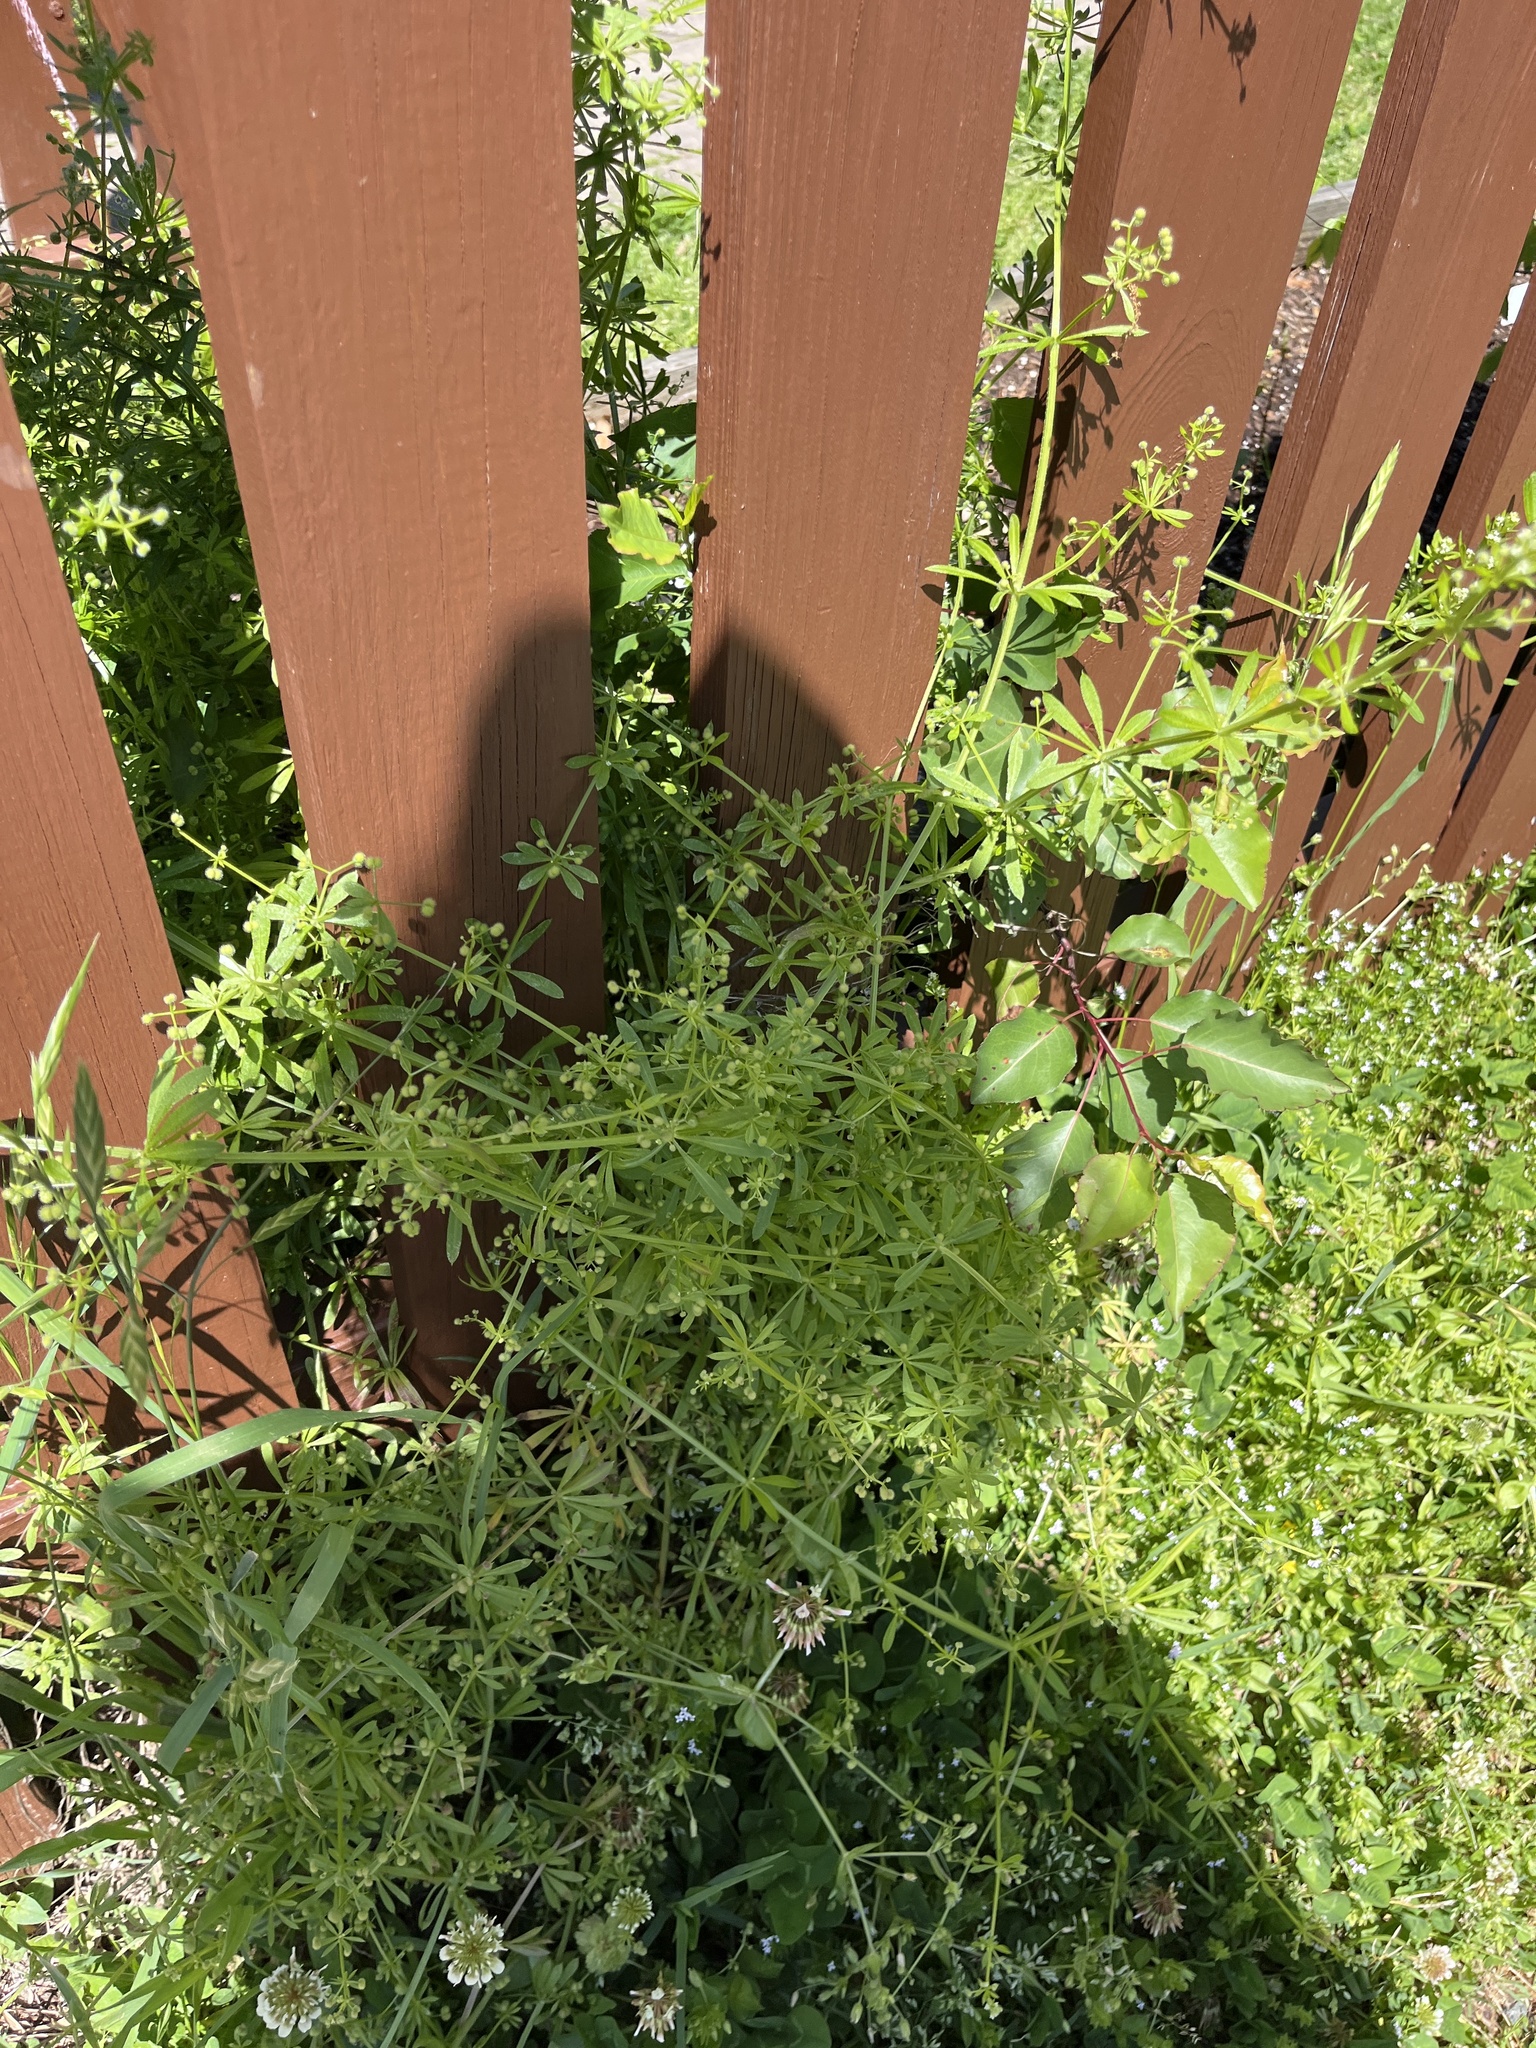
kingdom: Plantae
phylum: Tracheophyta
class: Magnoliopsida
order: Gentianales
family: Rubiaceae
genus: Galium
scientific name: Galium aparine
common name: Cleavers
